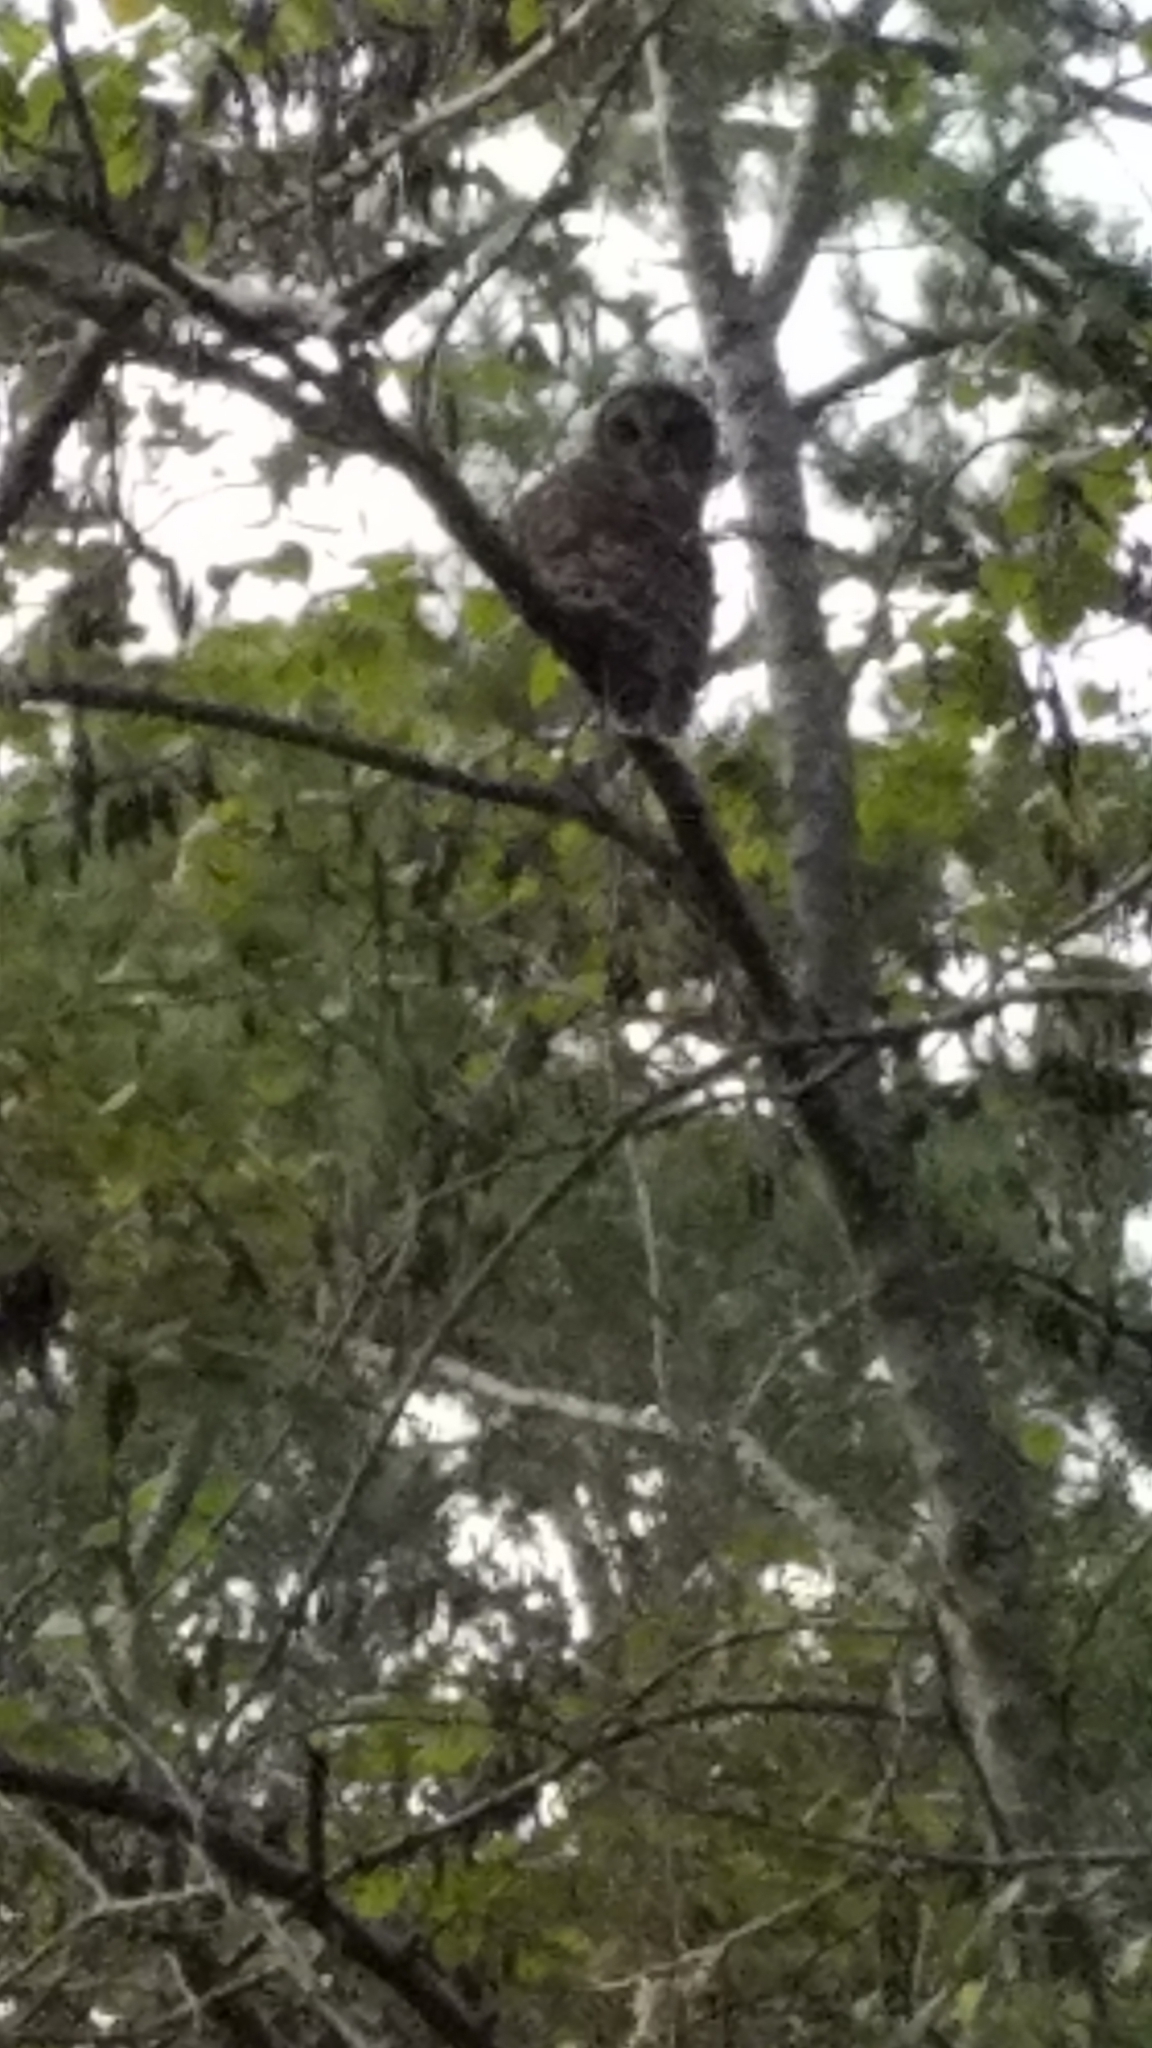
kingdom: Animalia
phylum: Chordata
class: Aves
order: Strigiformes
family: Strigidae
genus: Strix
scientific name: Strix varia
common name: Barred owl
